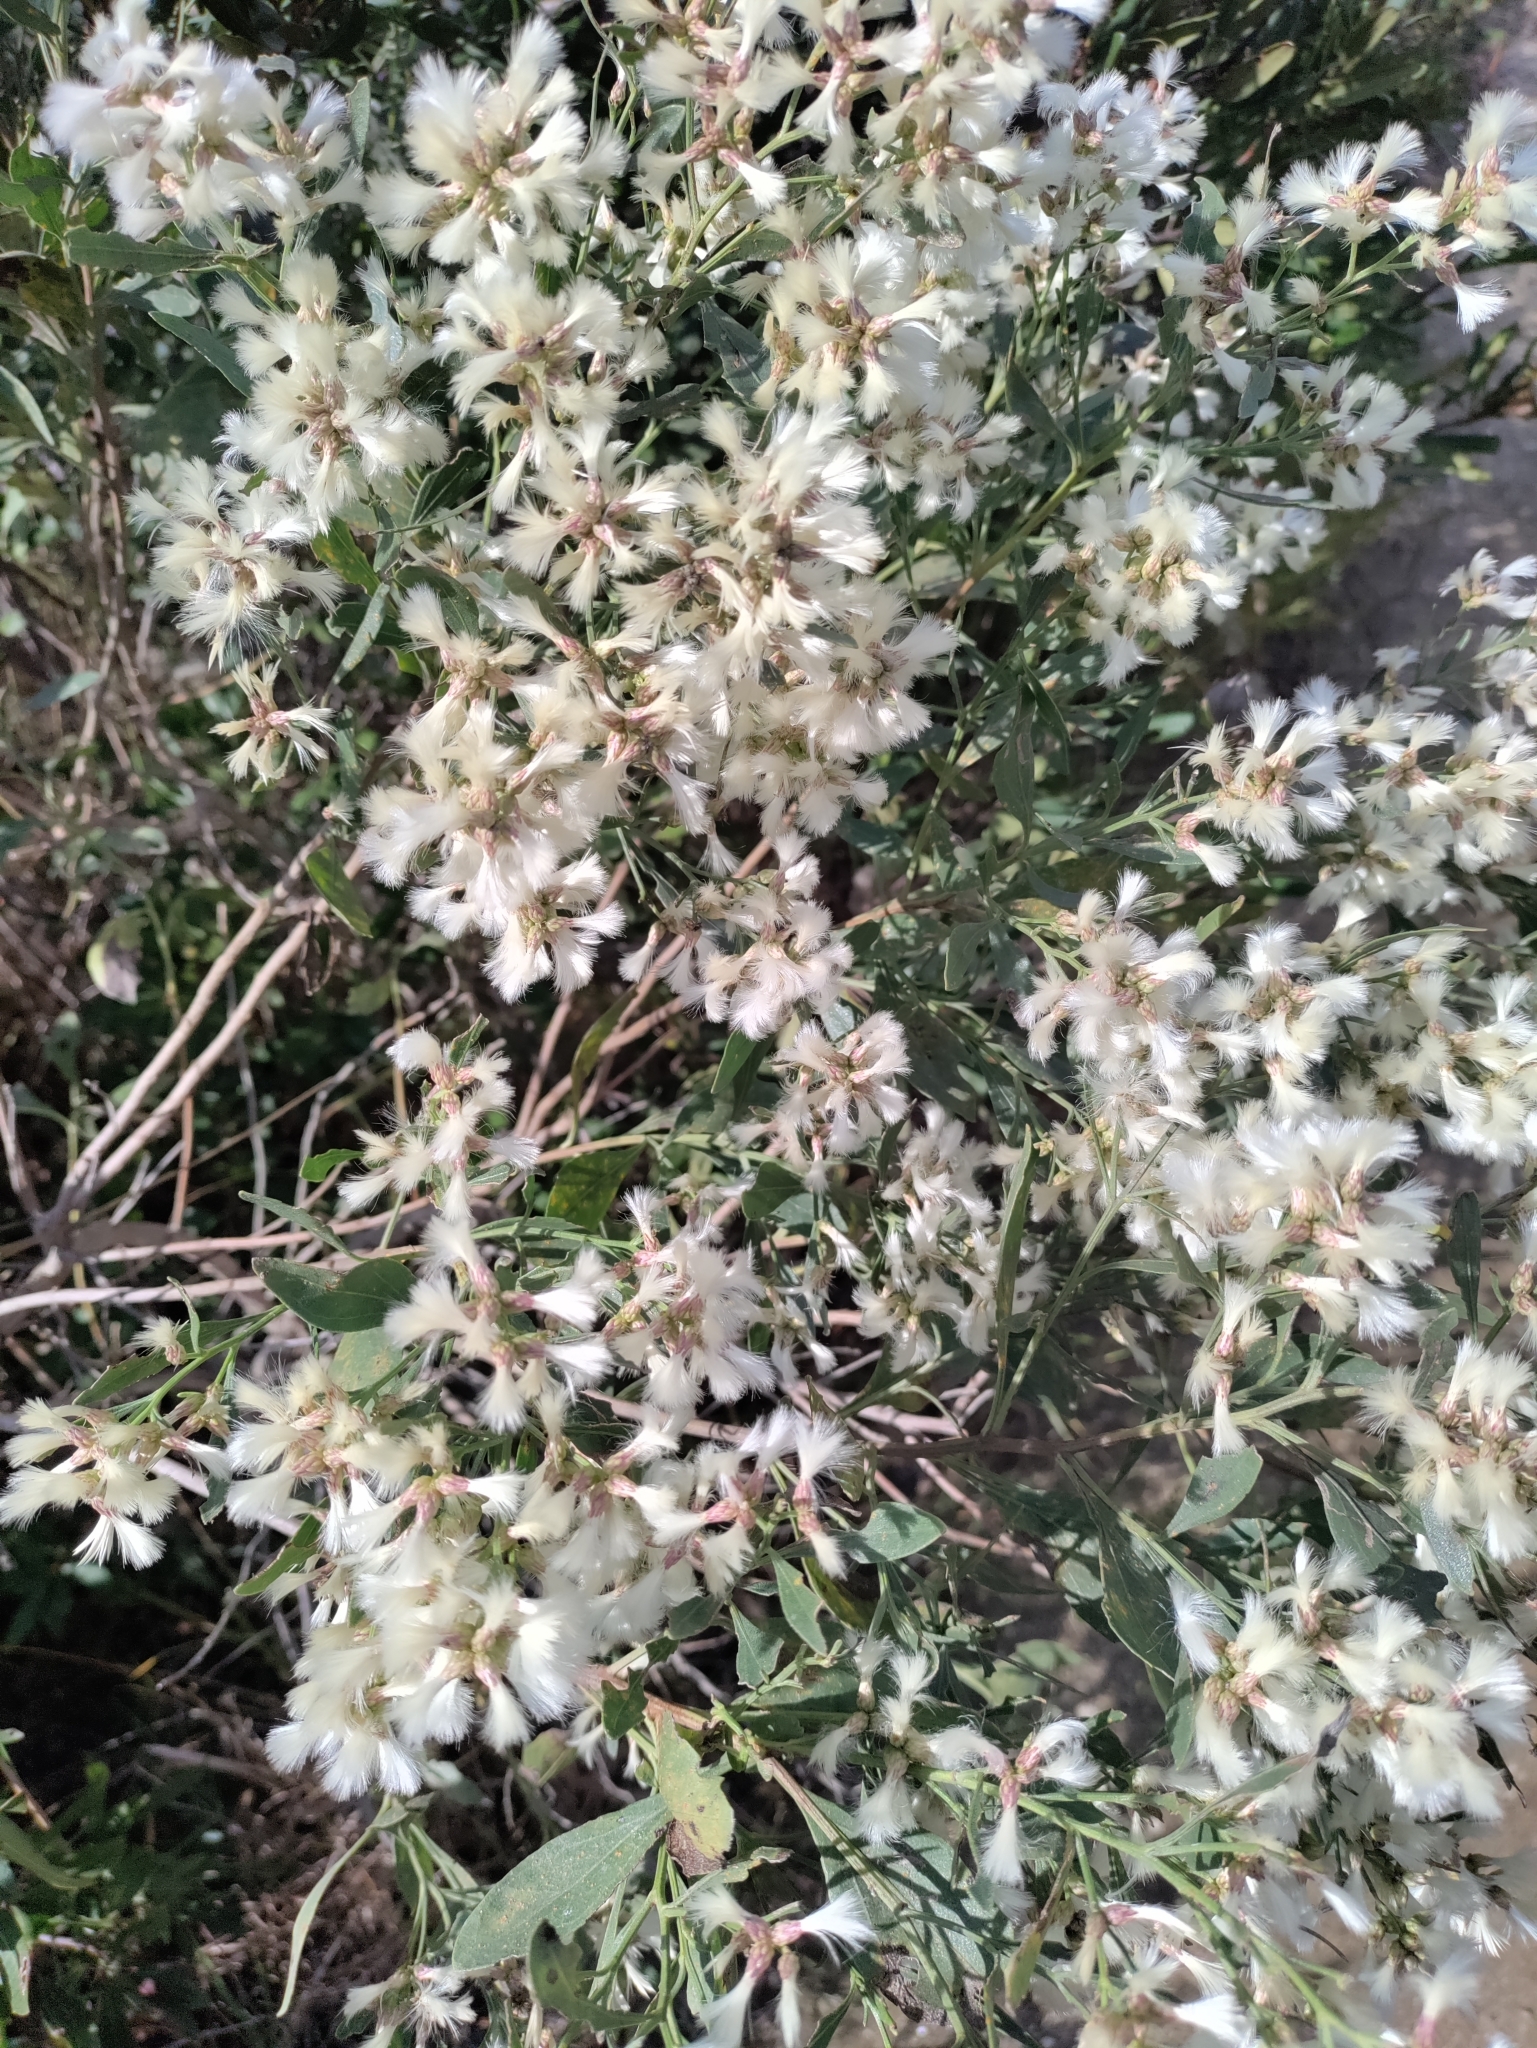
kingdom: Plantae
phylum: Tracheophyta
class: Magnoliopsida
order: Asterales
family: Asteraceae
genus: Baccharis
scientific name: Baccharis halimifolia
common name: Eastern baccharis
